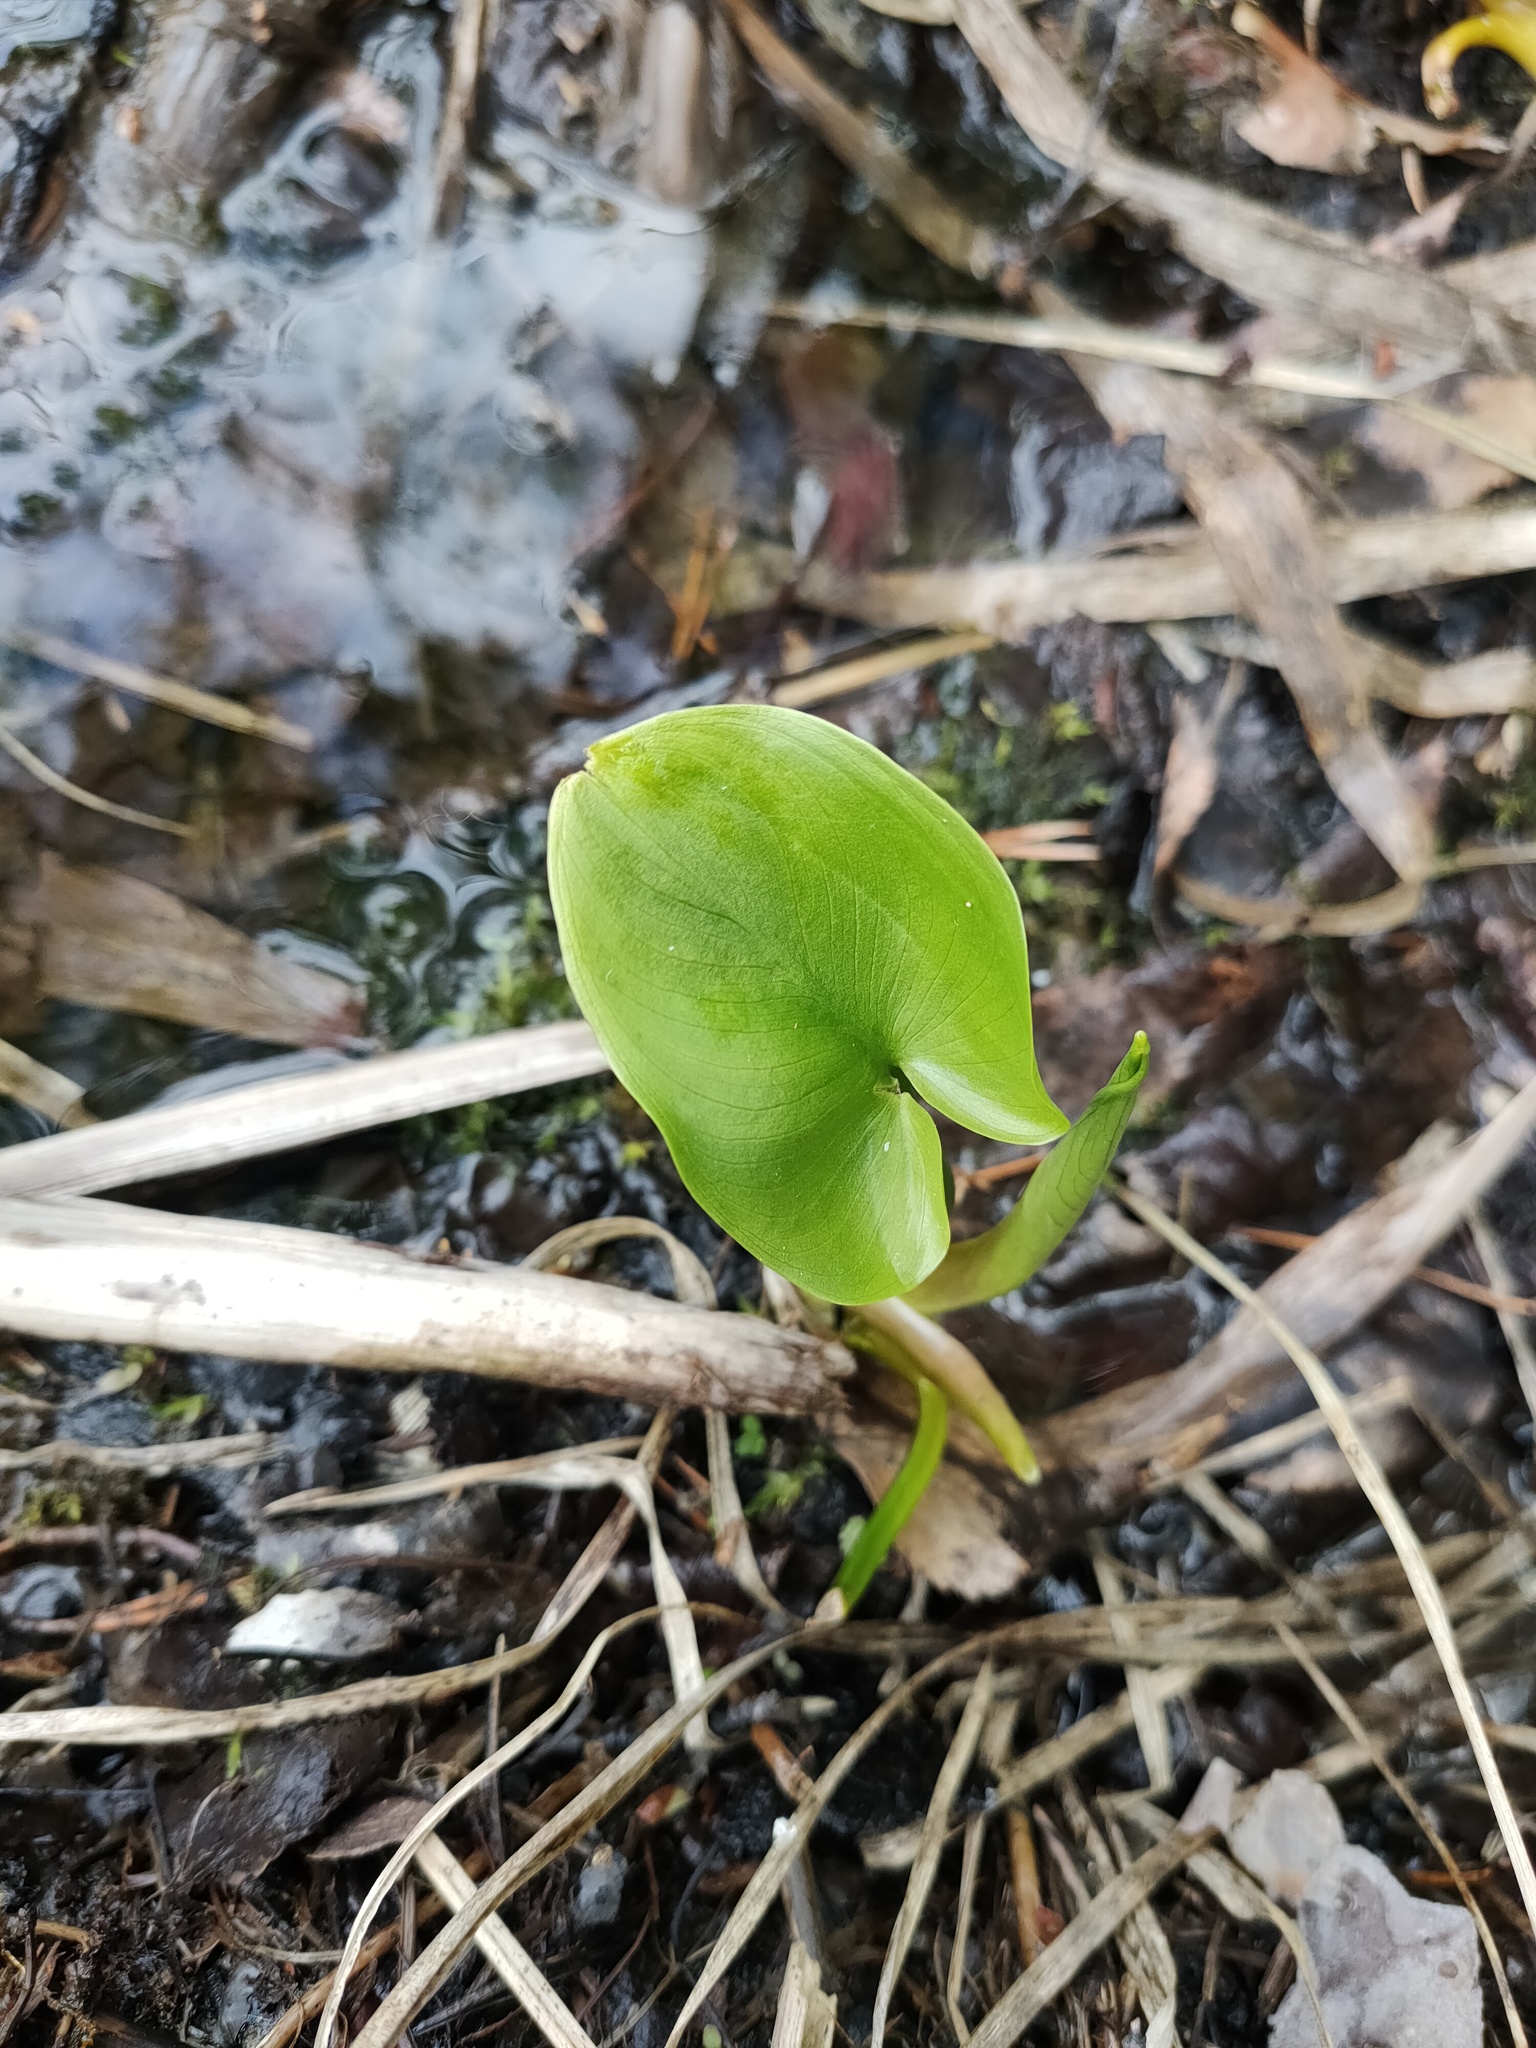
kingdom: Plantae
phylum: Tracheophyta
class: Liliopsida
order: Alismatales
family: Araceae
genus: Calla
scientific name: Calla palustris
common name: Bog arum
